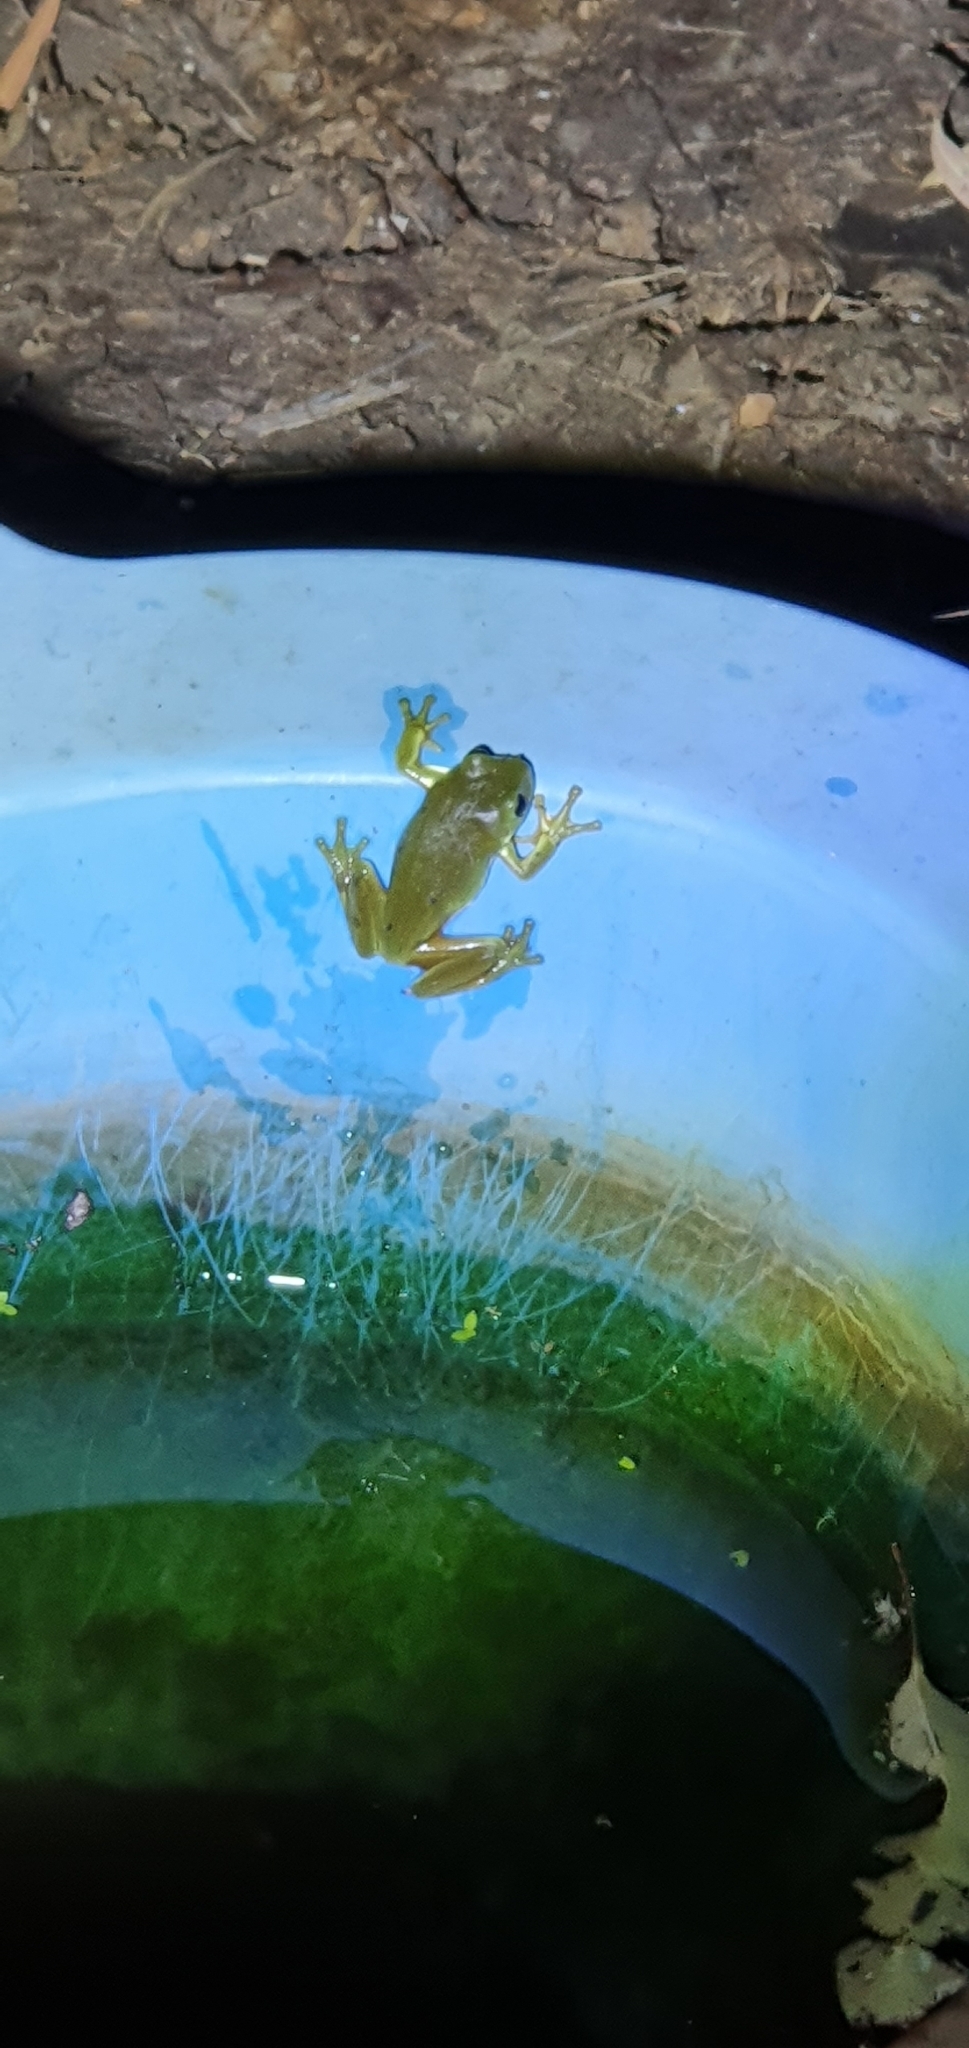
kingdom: Animalia
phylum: Chordata
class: Amphibia
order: Anura
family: Pelodryadidae
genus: Ranoidea
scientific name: Ranoidea caerulea
